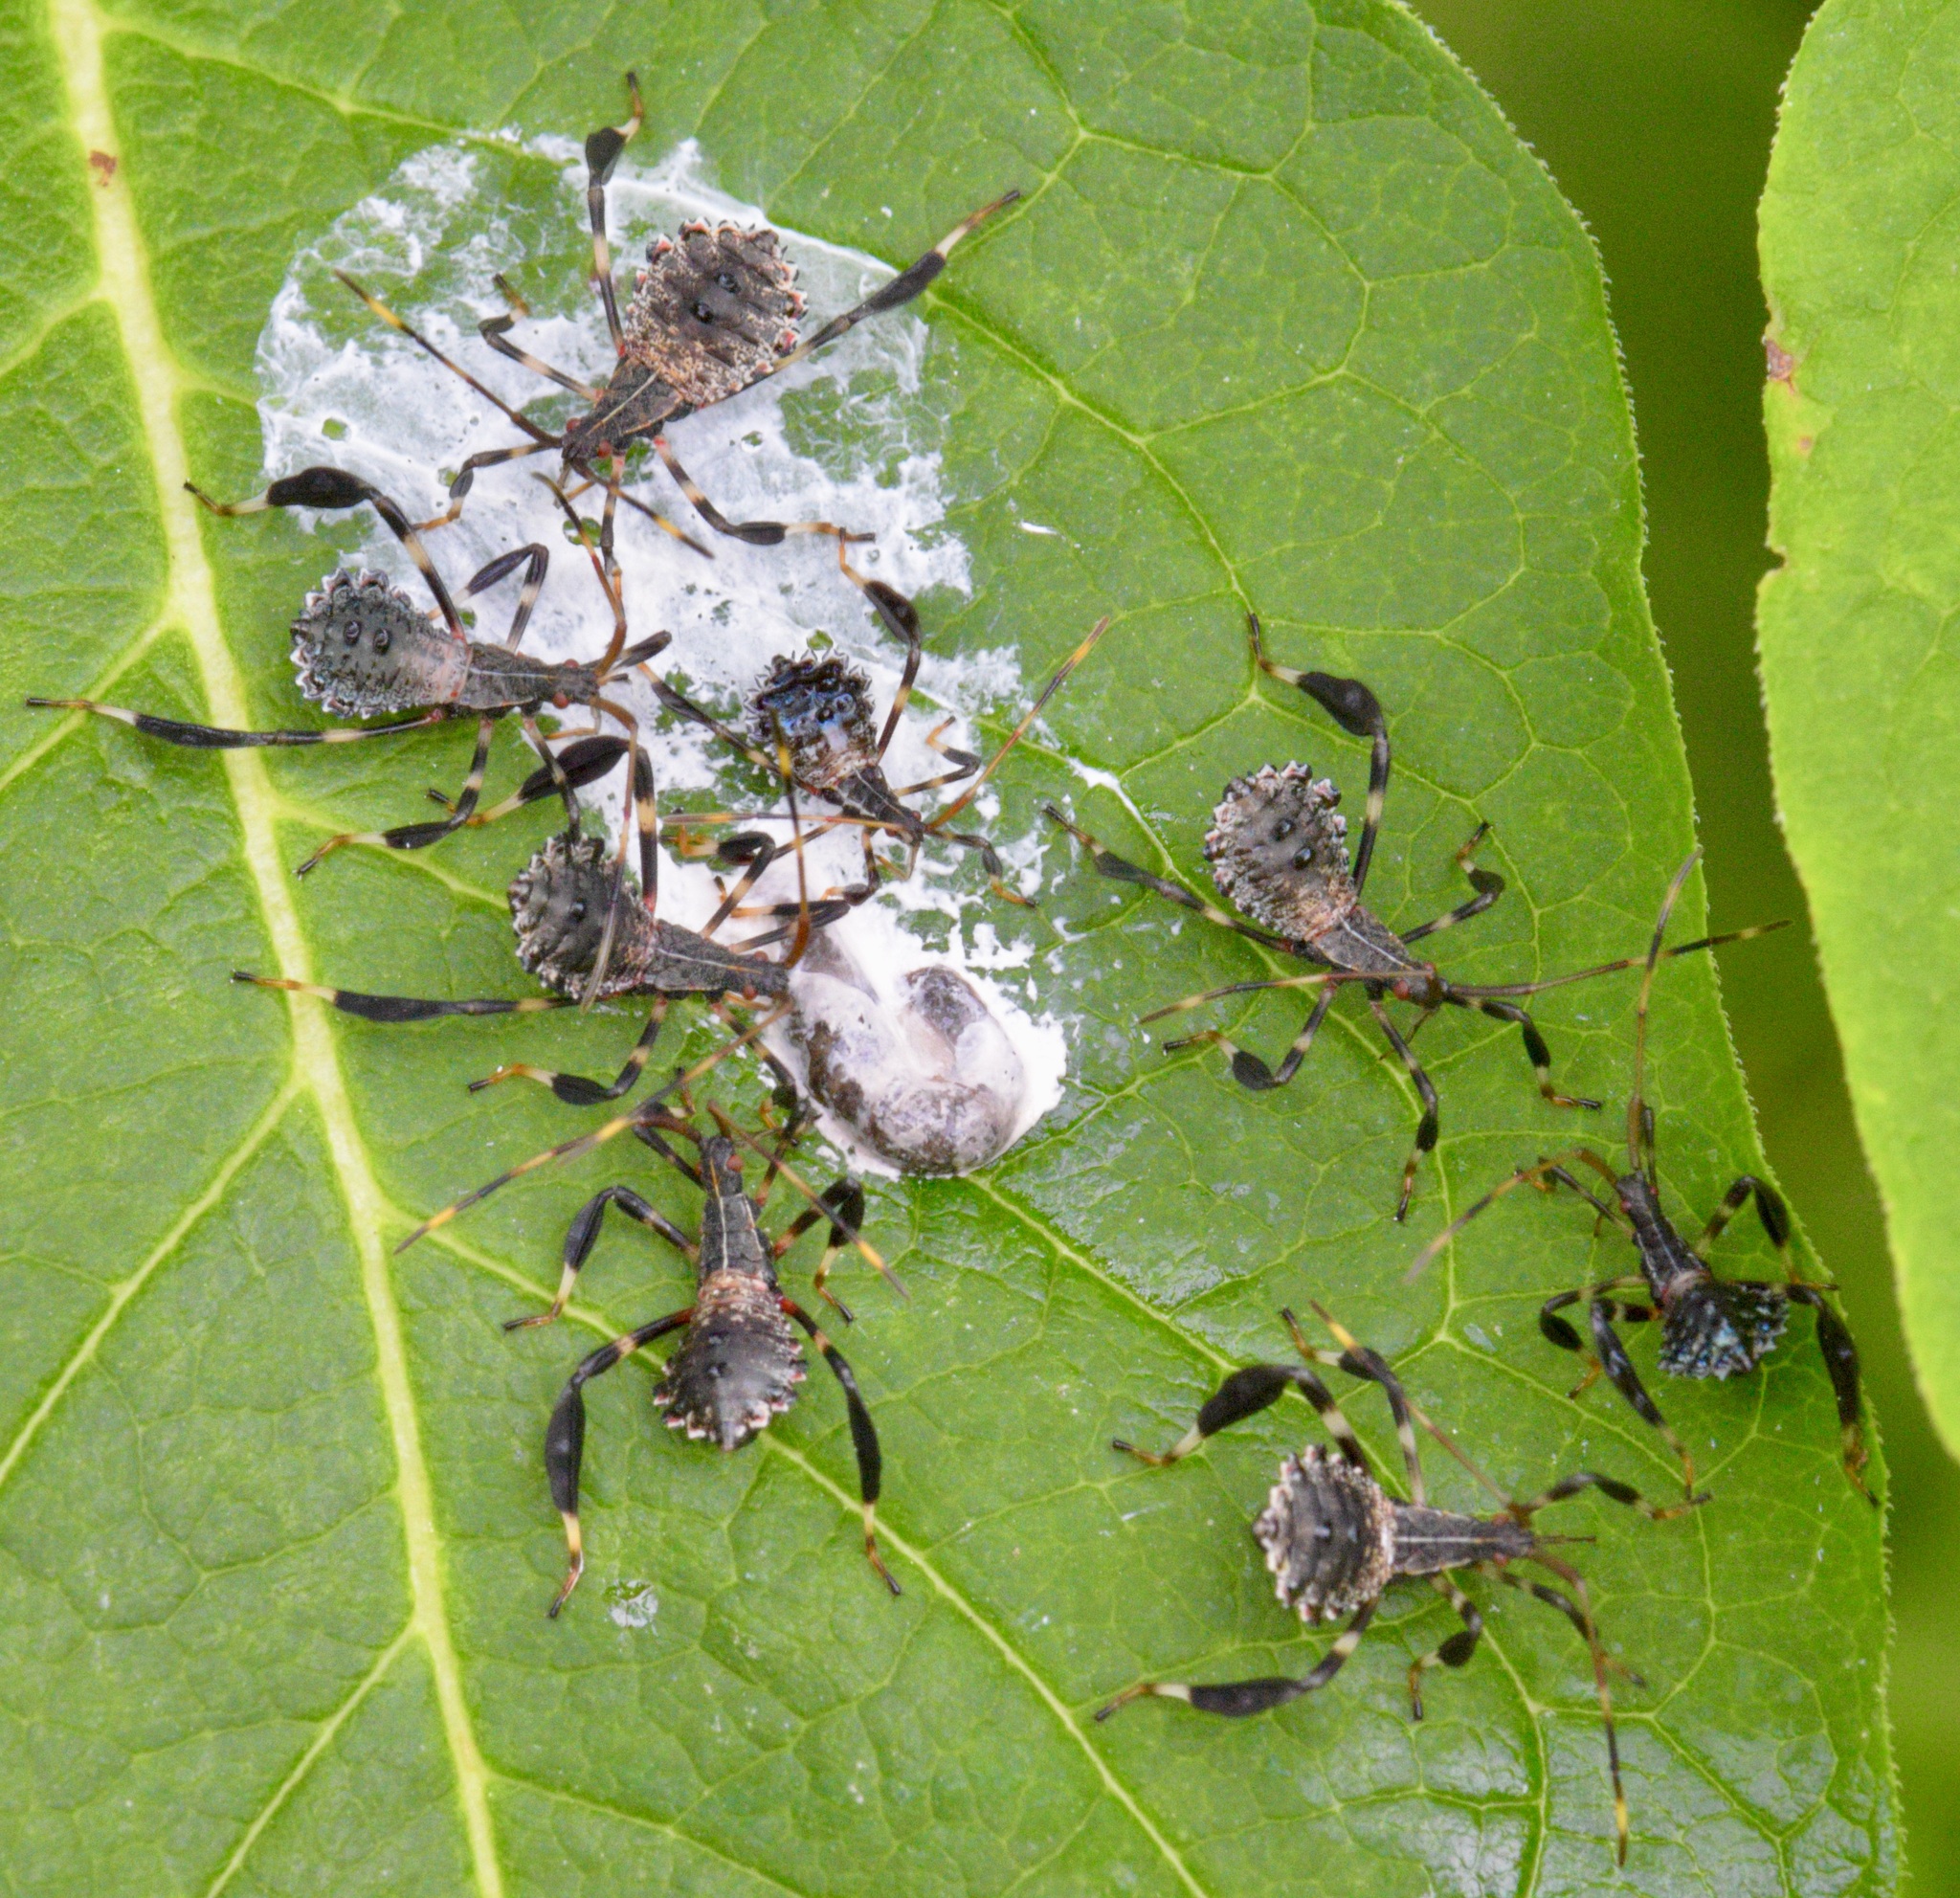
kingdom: Animalia
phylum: Arthropoda
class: Insecta
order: Hemiptera
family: Coreidae
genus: Acanthocephala
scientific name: Acanthocephala terminalis
